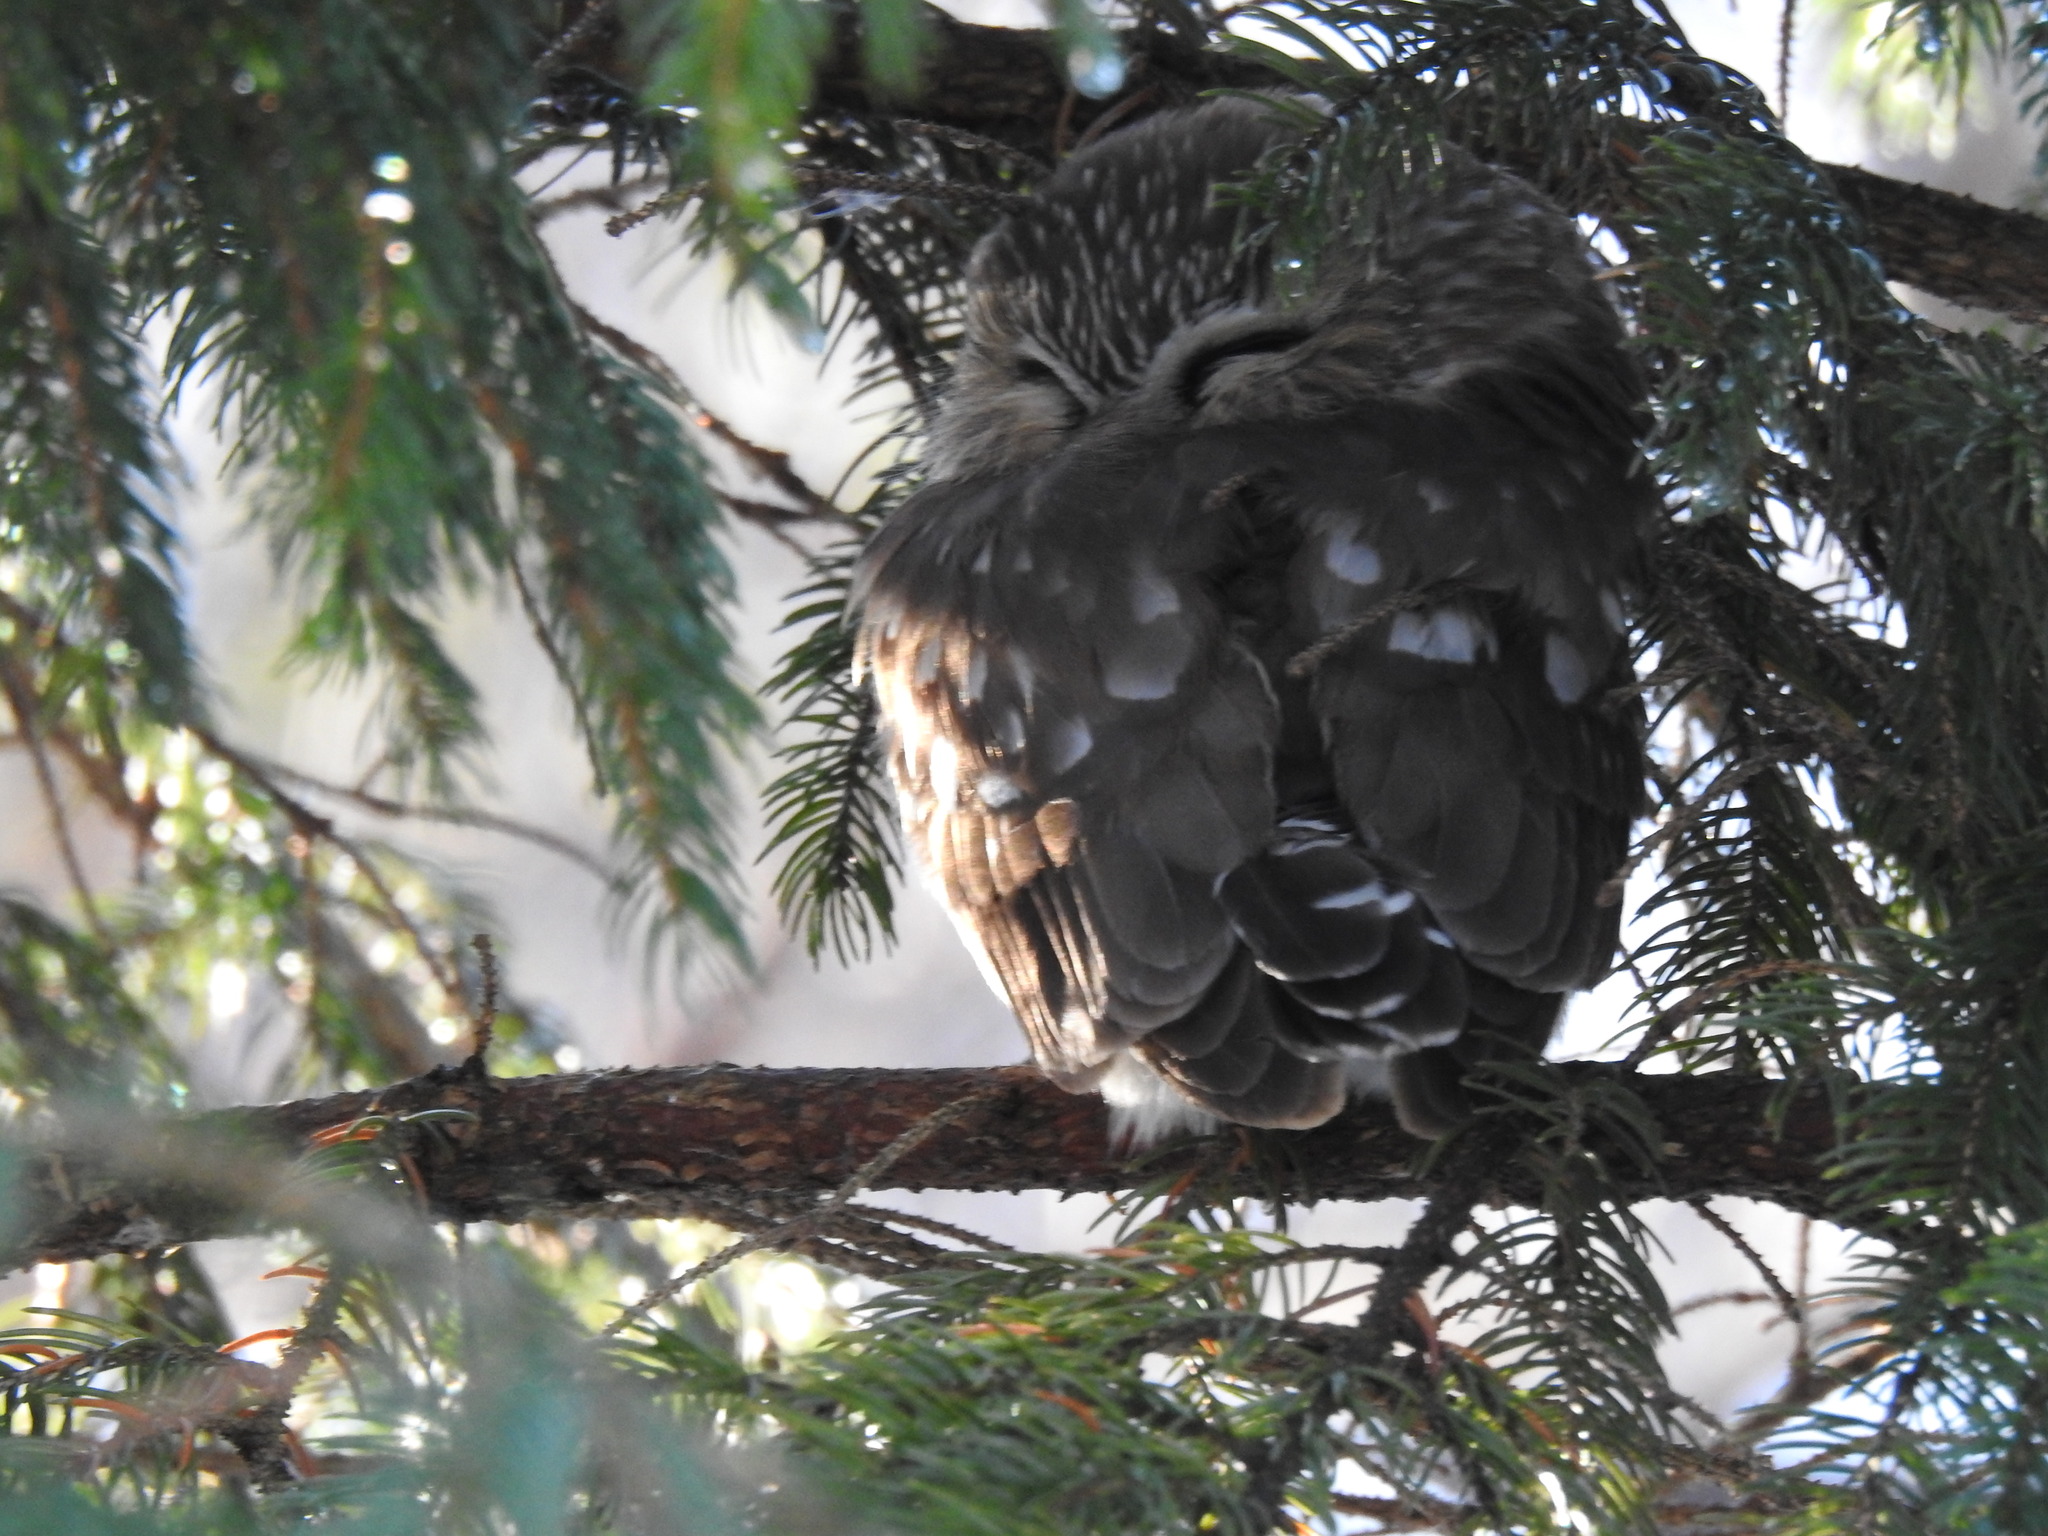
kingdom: Animalia
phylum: Chordata
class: Aves
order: Strigiformes
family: Strigidae
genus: Aegolius
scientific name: Aegolius acadicus
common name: Northern saw-whet owl
